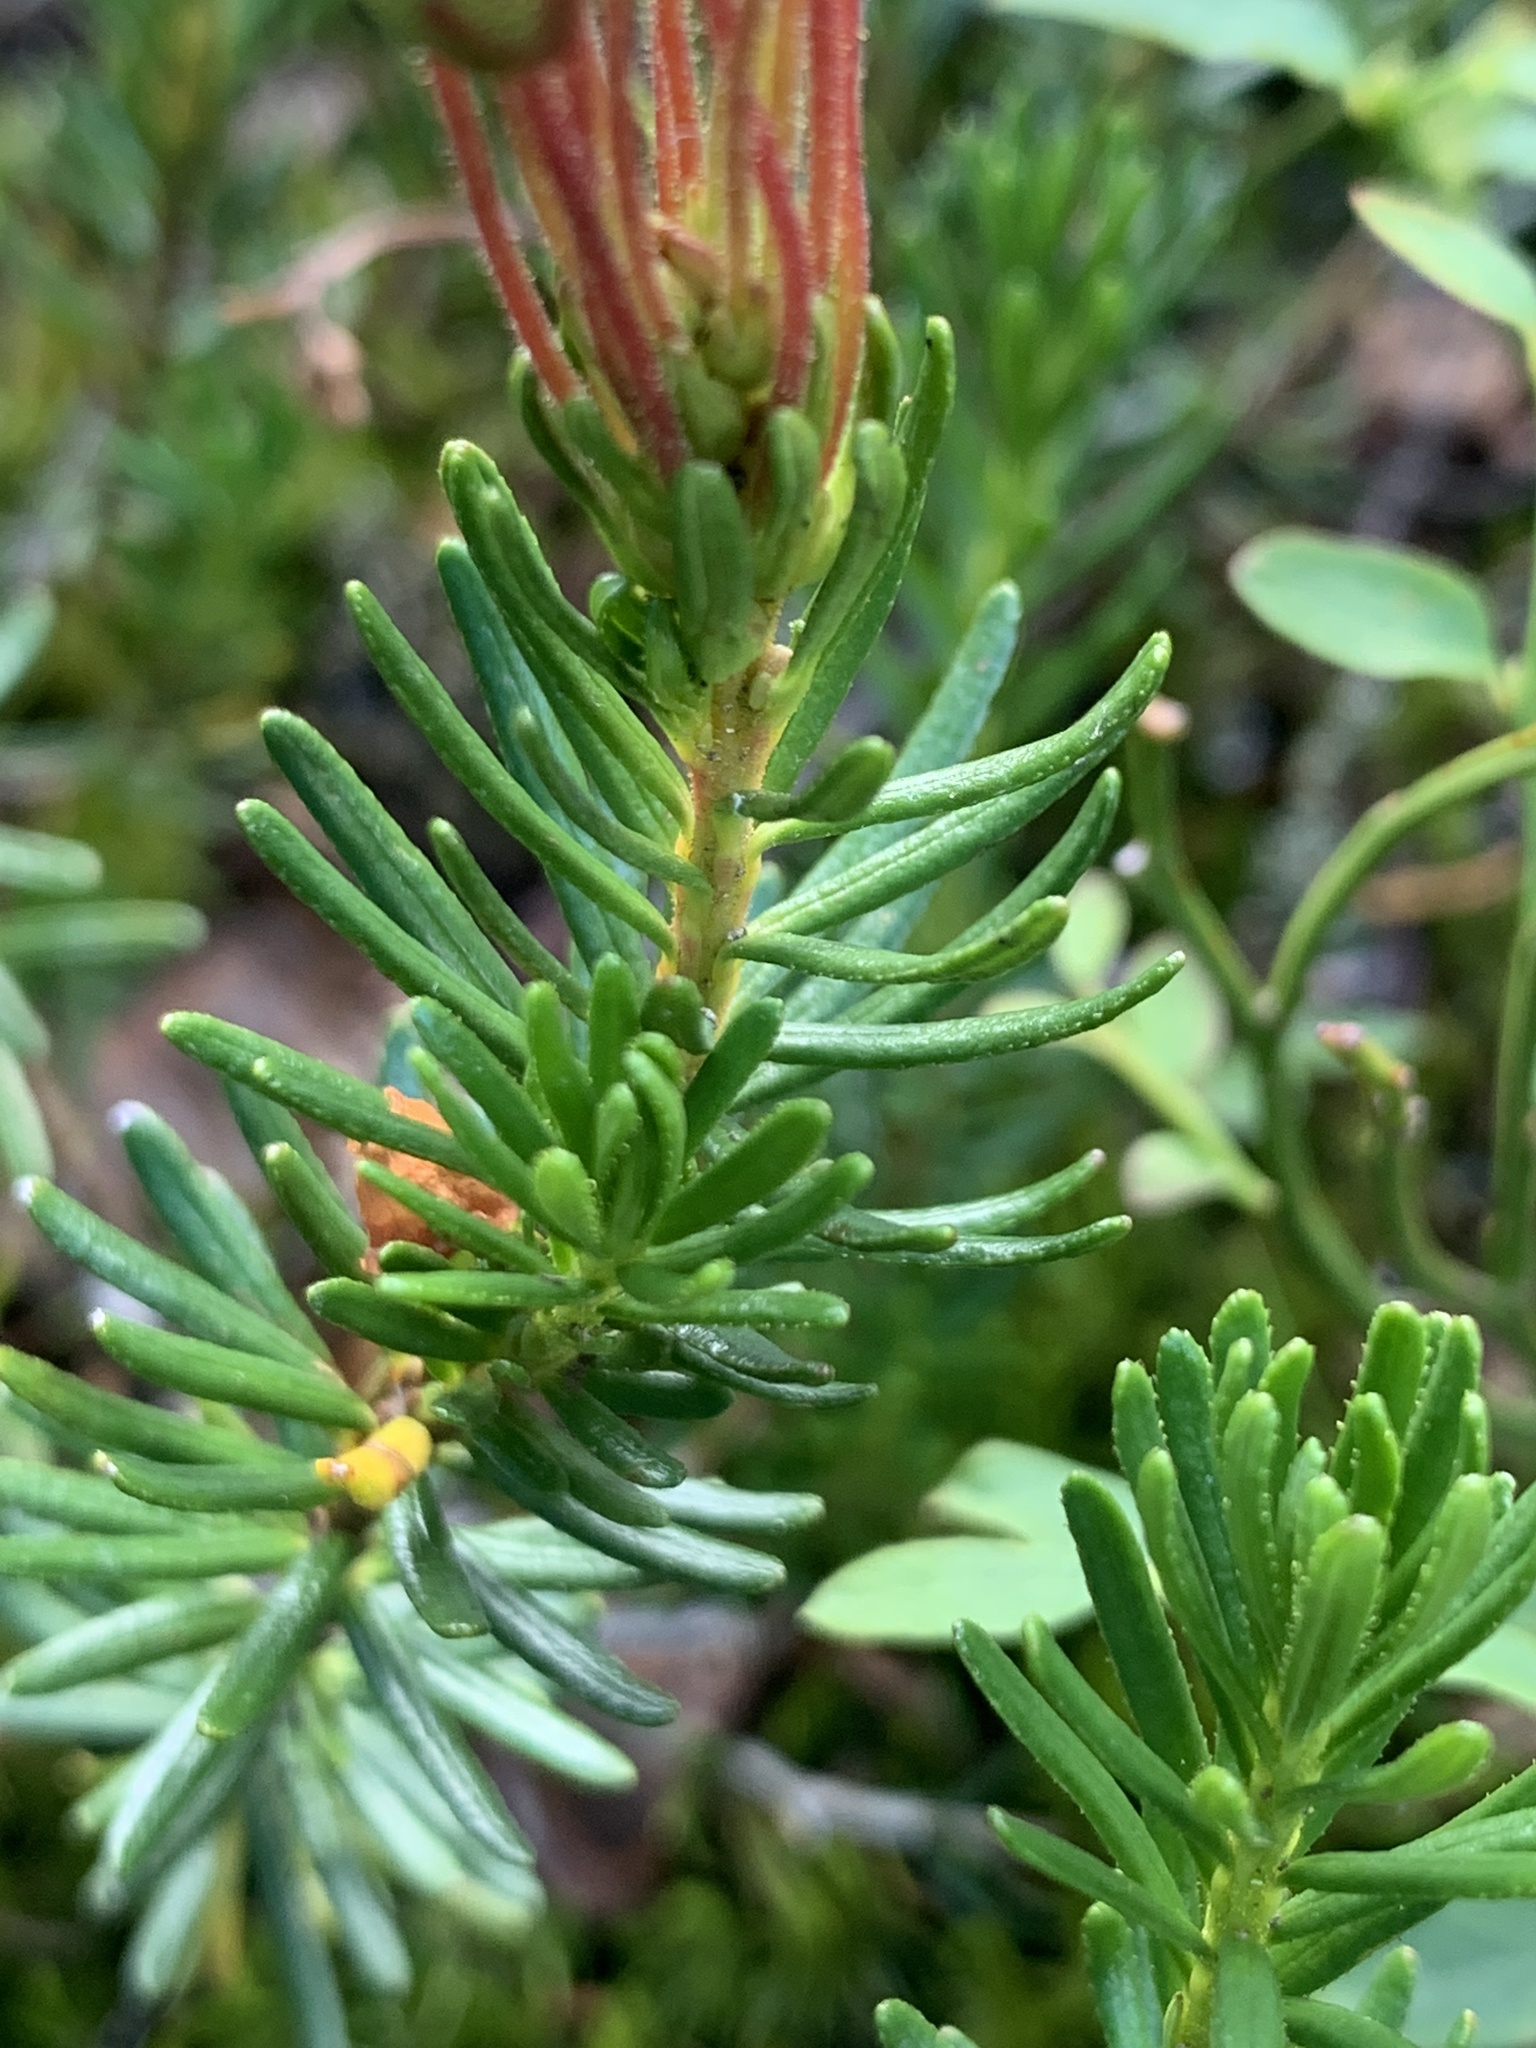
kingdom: Plantae
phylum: Tracheophyta
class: Magnoliopsida
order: Ericales
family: Ericaceae
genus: Phyllodoce
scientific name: Phyllodoce empetriformis
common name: Pink mountain heather
